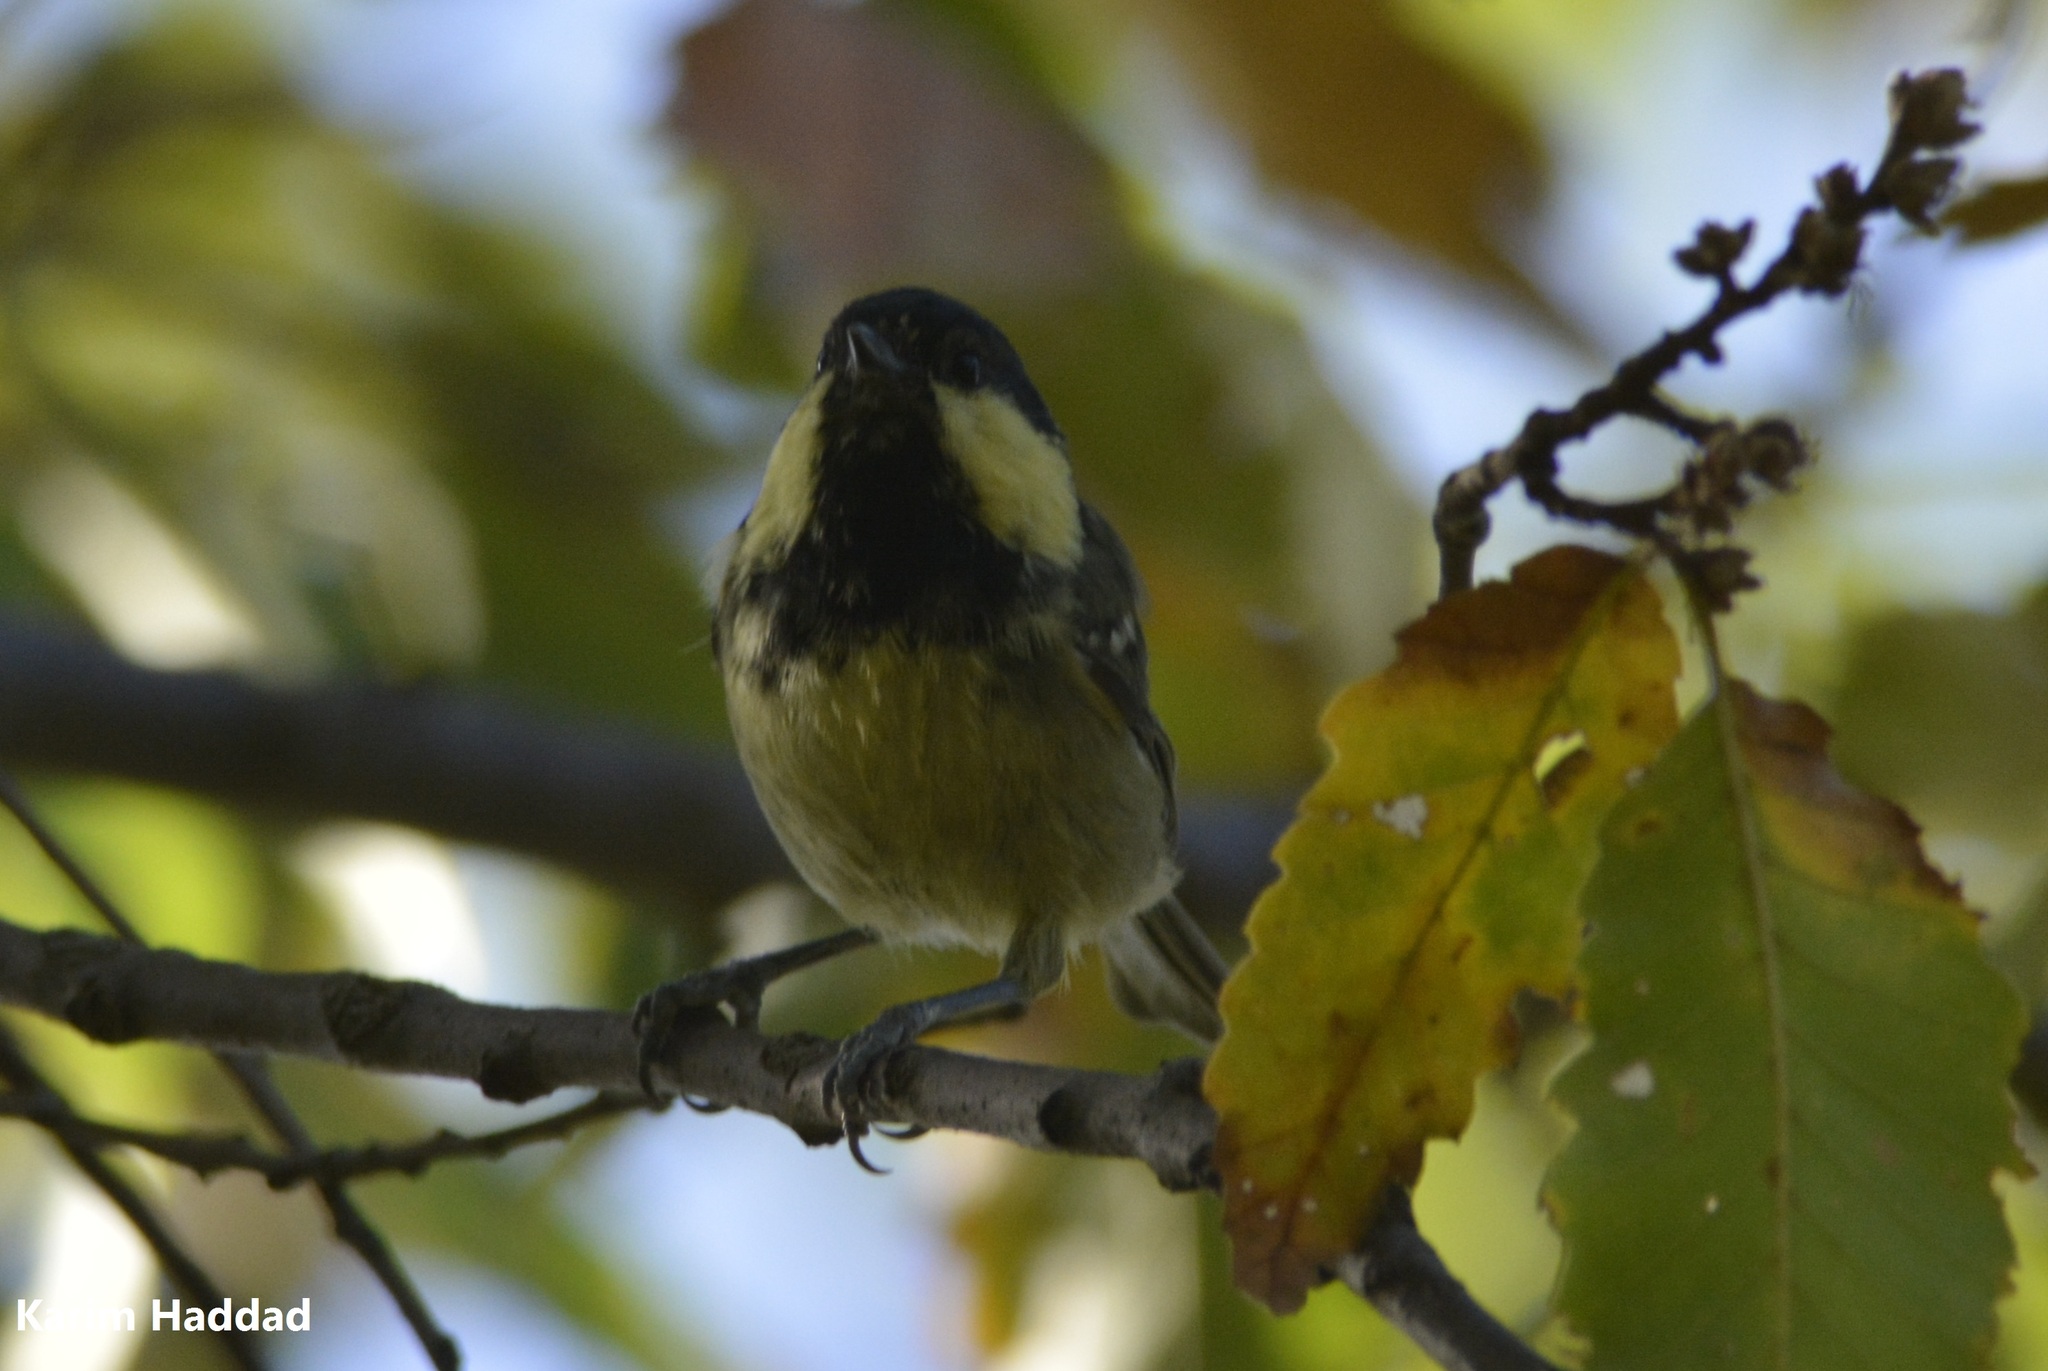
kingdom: Animalia
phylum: Chordata
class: Aves
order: Passeriformes
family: Paridae
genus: Periparus
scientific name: Periparus ater
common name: Coal tit
